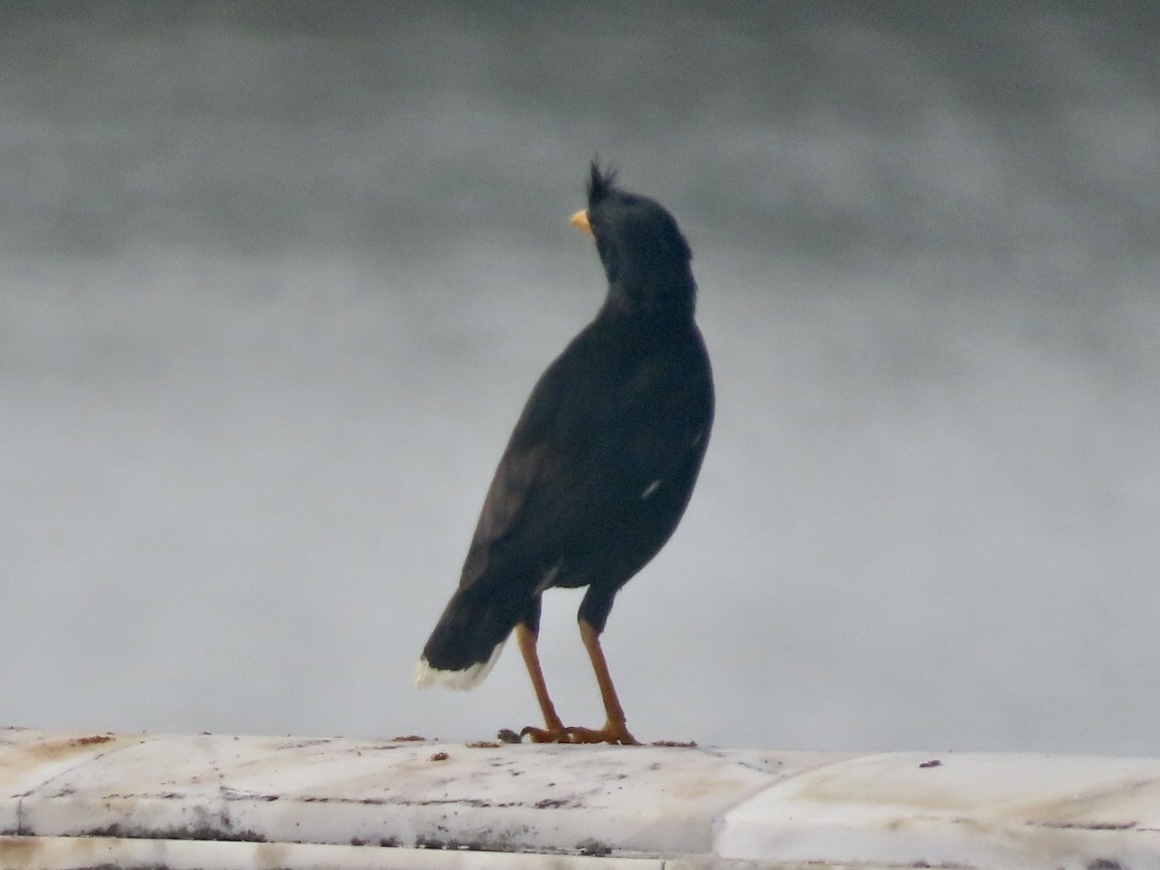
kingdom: Animalia
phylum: Chordata
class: Aves
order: Passeriformes
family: Sturnidae
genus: Acridotheres
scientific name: Acridotheres grandis
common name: Great myna
